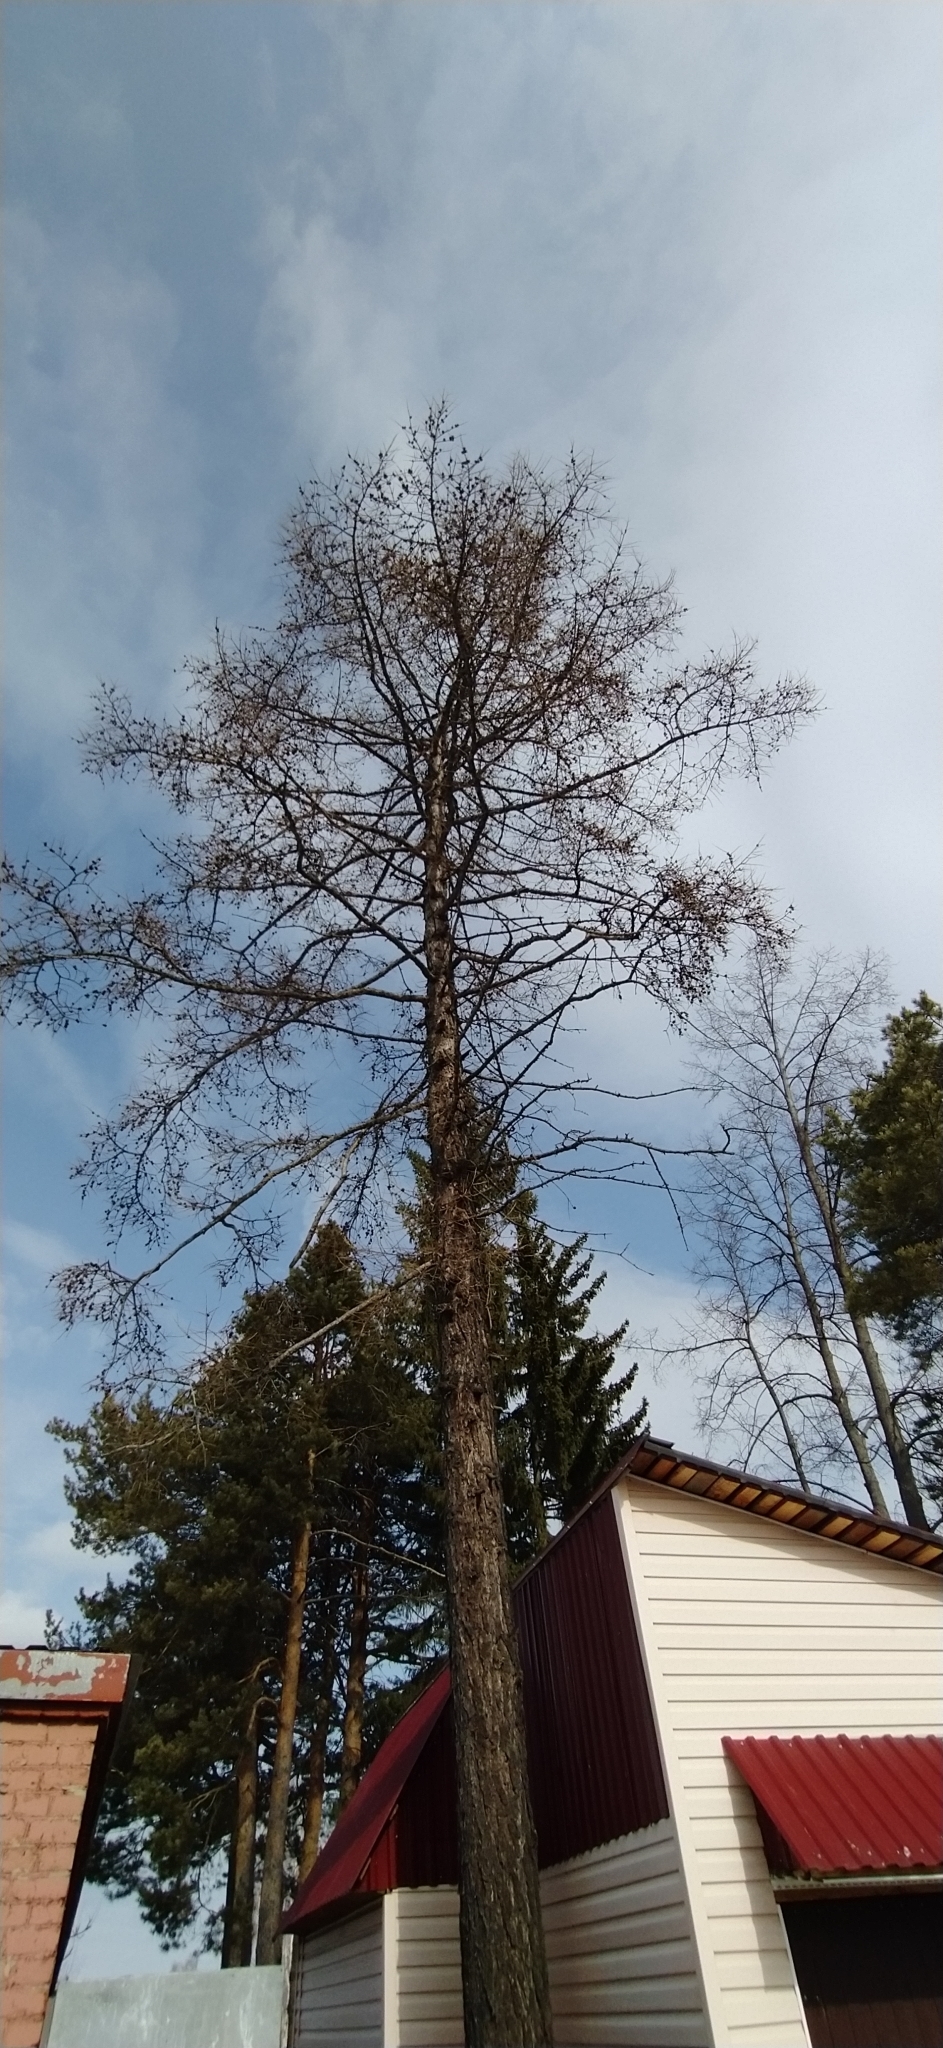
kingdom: Plantae
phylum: Tracheophyta
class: Pinopsida
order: Pinales
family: Pinaceae
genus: Larix
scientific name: Larix sibirica
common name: Siberian larch
